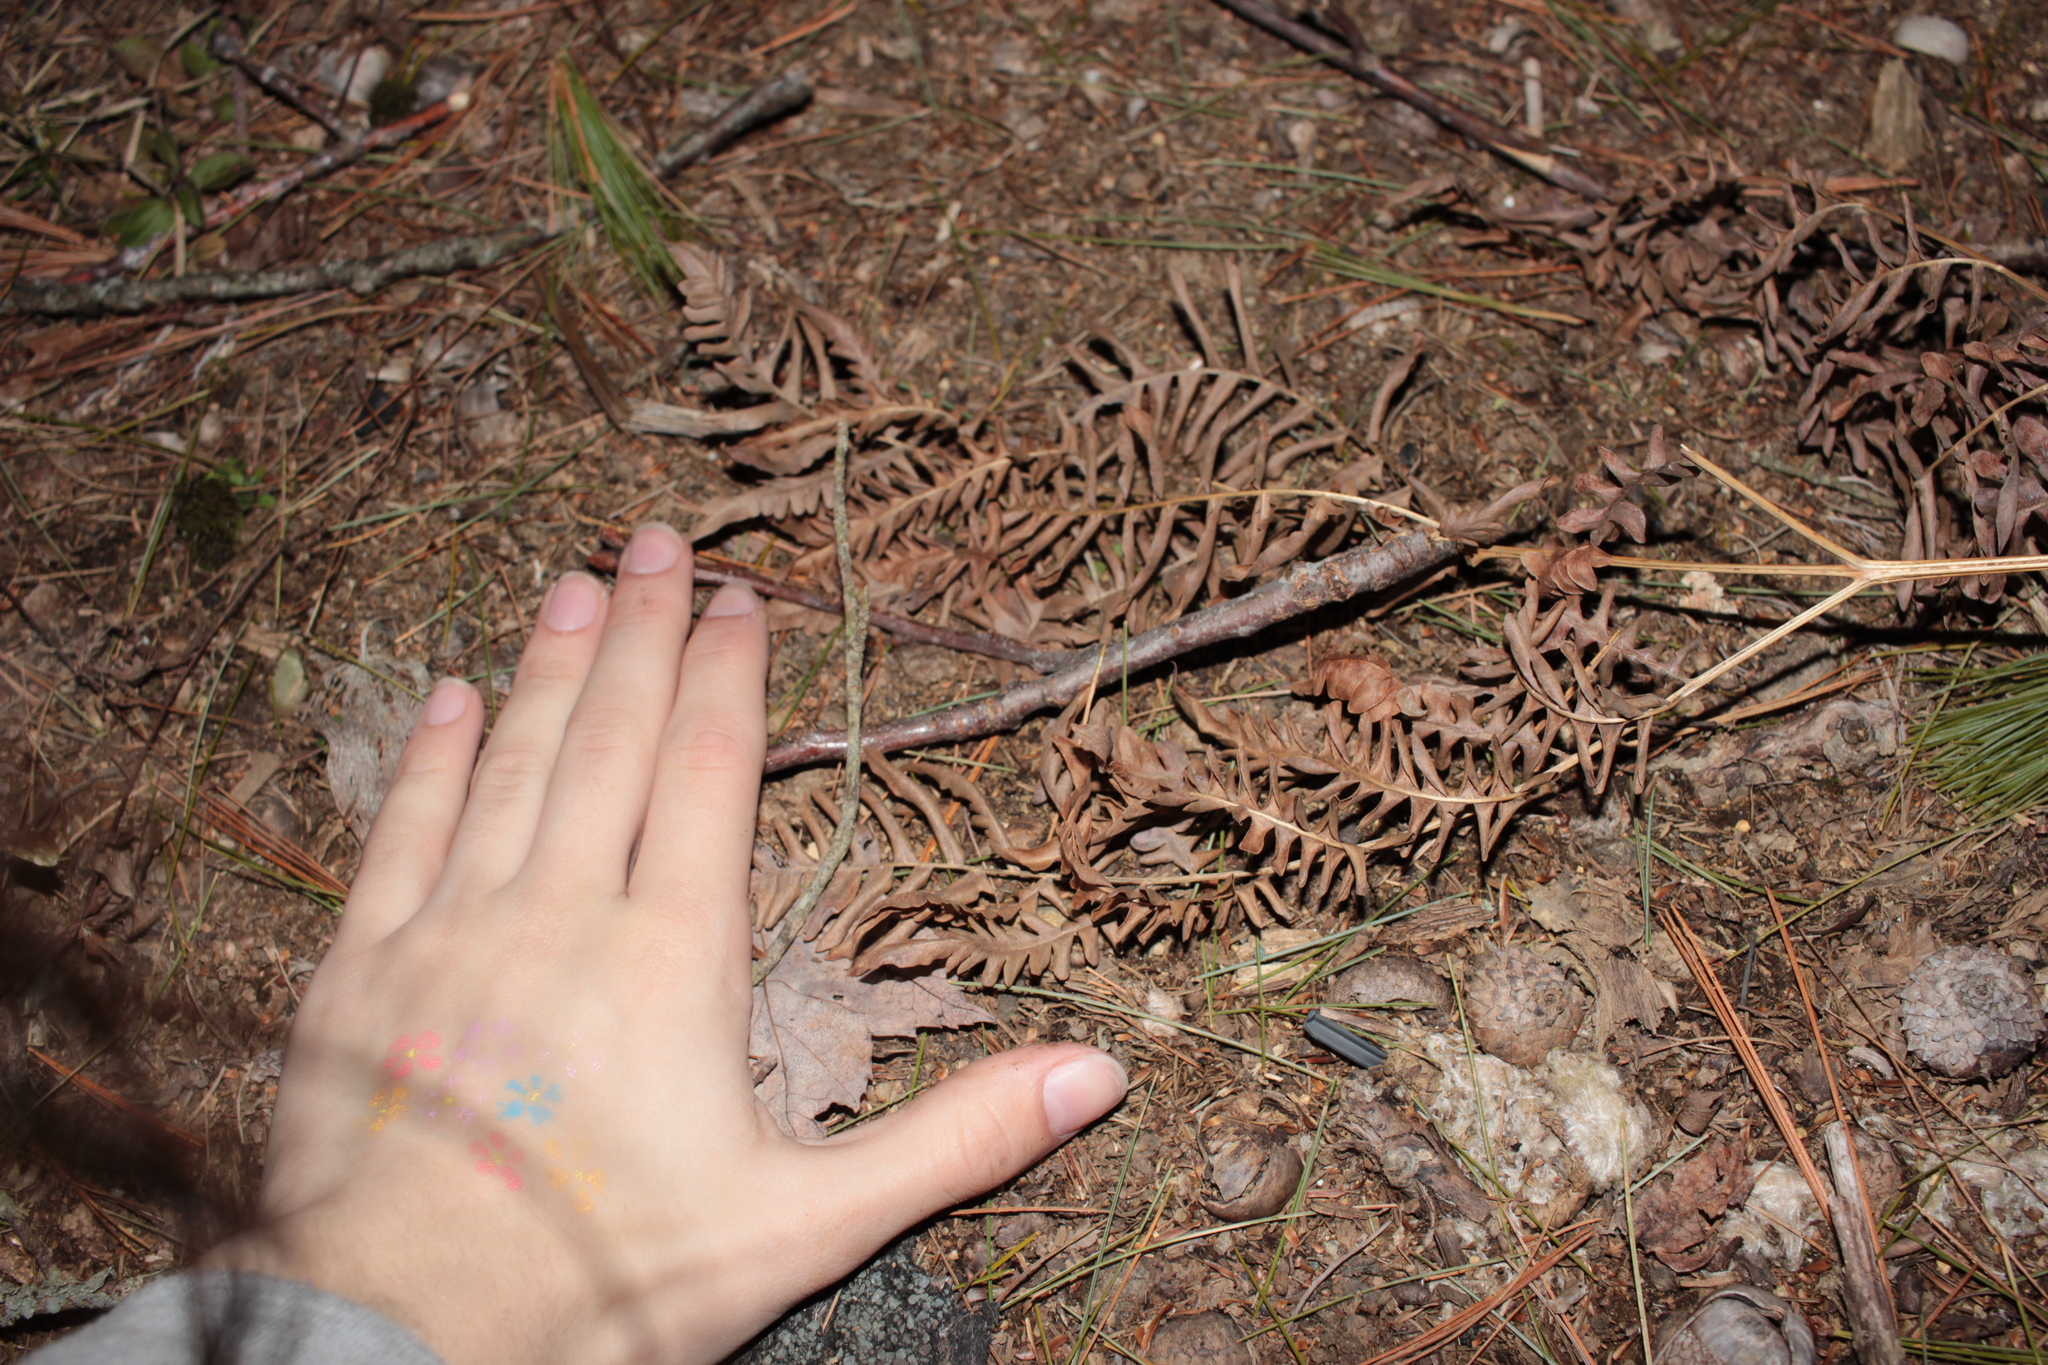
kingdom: Plantae
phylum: Tracheophyta
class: Polypodiopsida
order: Polypodiales
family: Dennstaedtiaceae
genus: Pteridium
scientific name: Pteridium aquilinum
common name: Bracken
